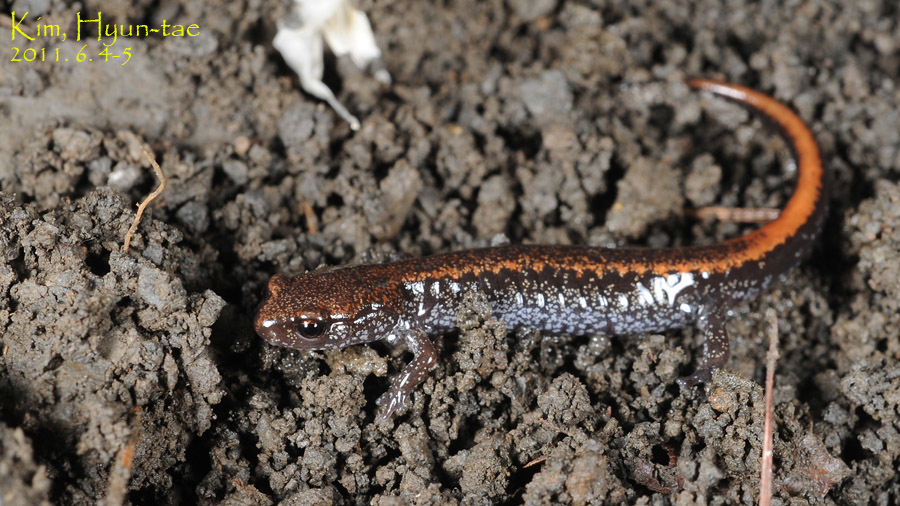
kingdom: Animalia
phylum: Chordata
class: Amphibia
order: Caudata
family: Plethodontidae
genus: Karsenia
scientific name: Karsenia koreana
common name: Korean crevice salamander
